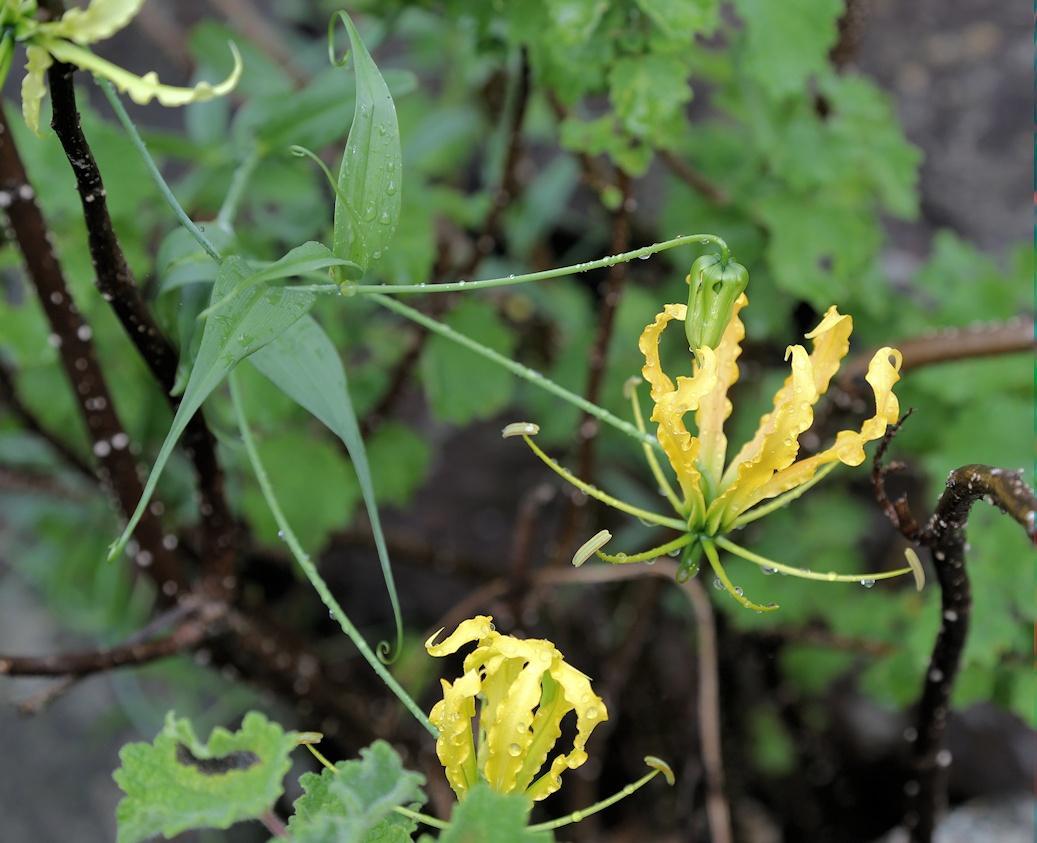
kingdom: Plantae
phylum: Tracheophyta
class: Liliopsida
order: Liliales
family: Colchicaceae
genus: Gloriosa
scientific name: Gloriosa superba
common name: Flame lily
